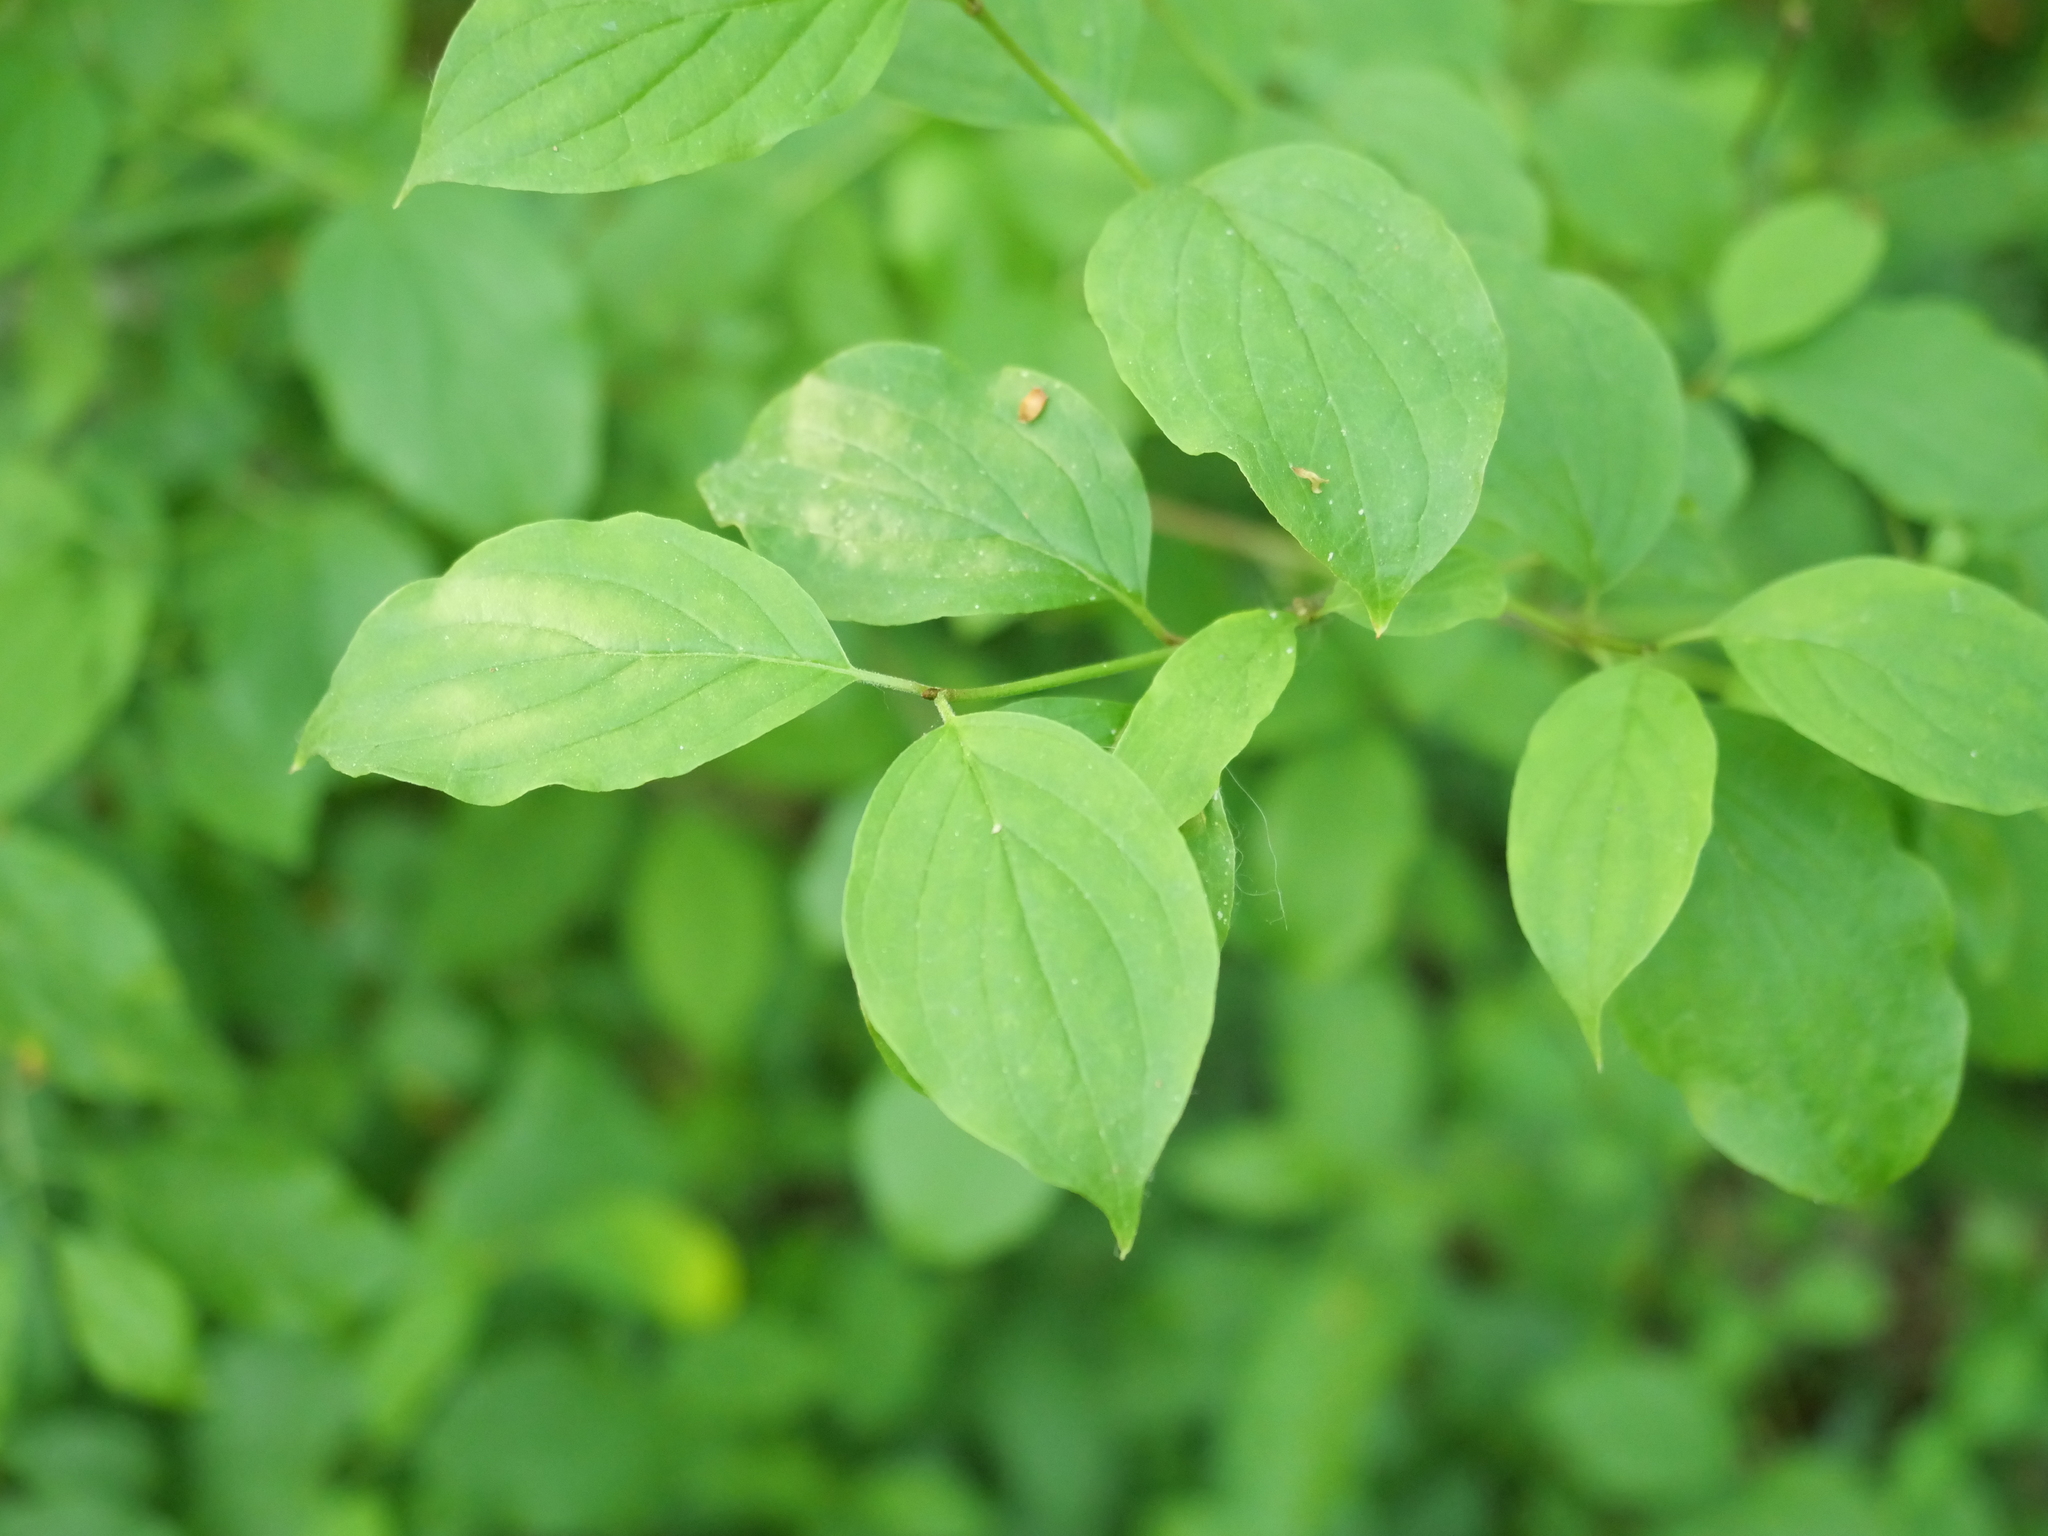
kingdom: Plantae
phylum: Tracheophyta
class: Magnoliopsida
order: Cornales
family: Cornaceae
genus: Cornus
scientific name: Cornus sanguinea
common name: Dogwood
